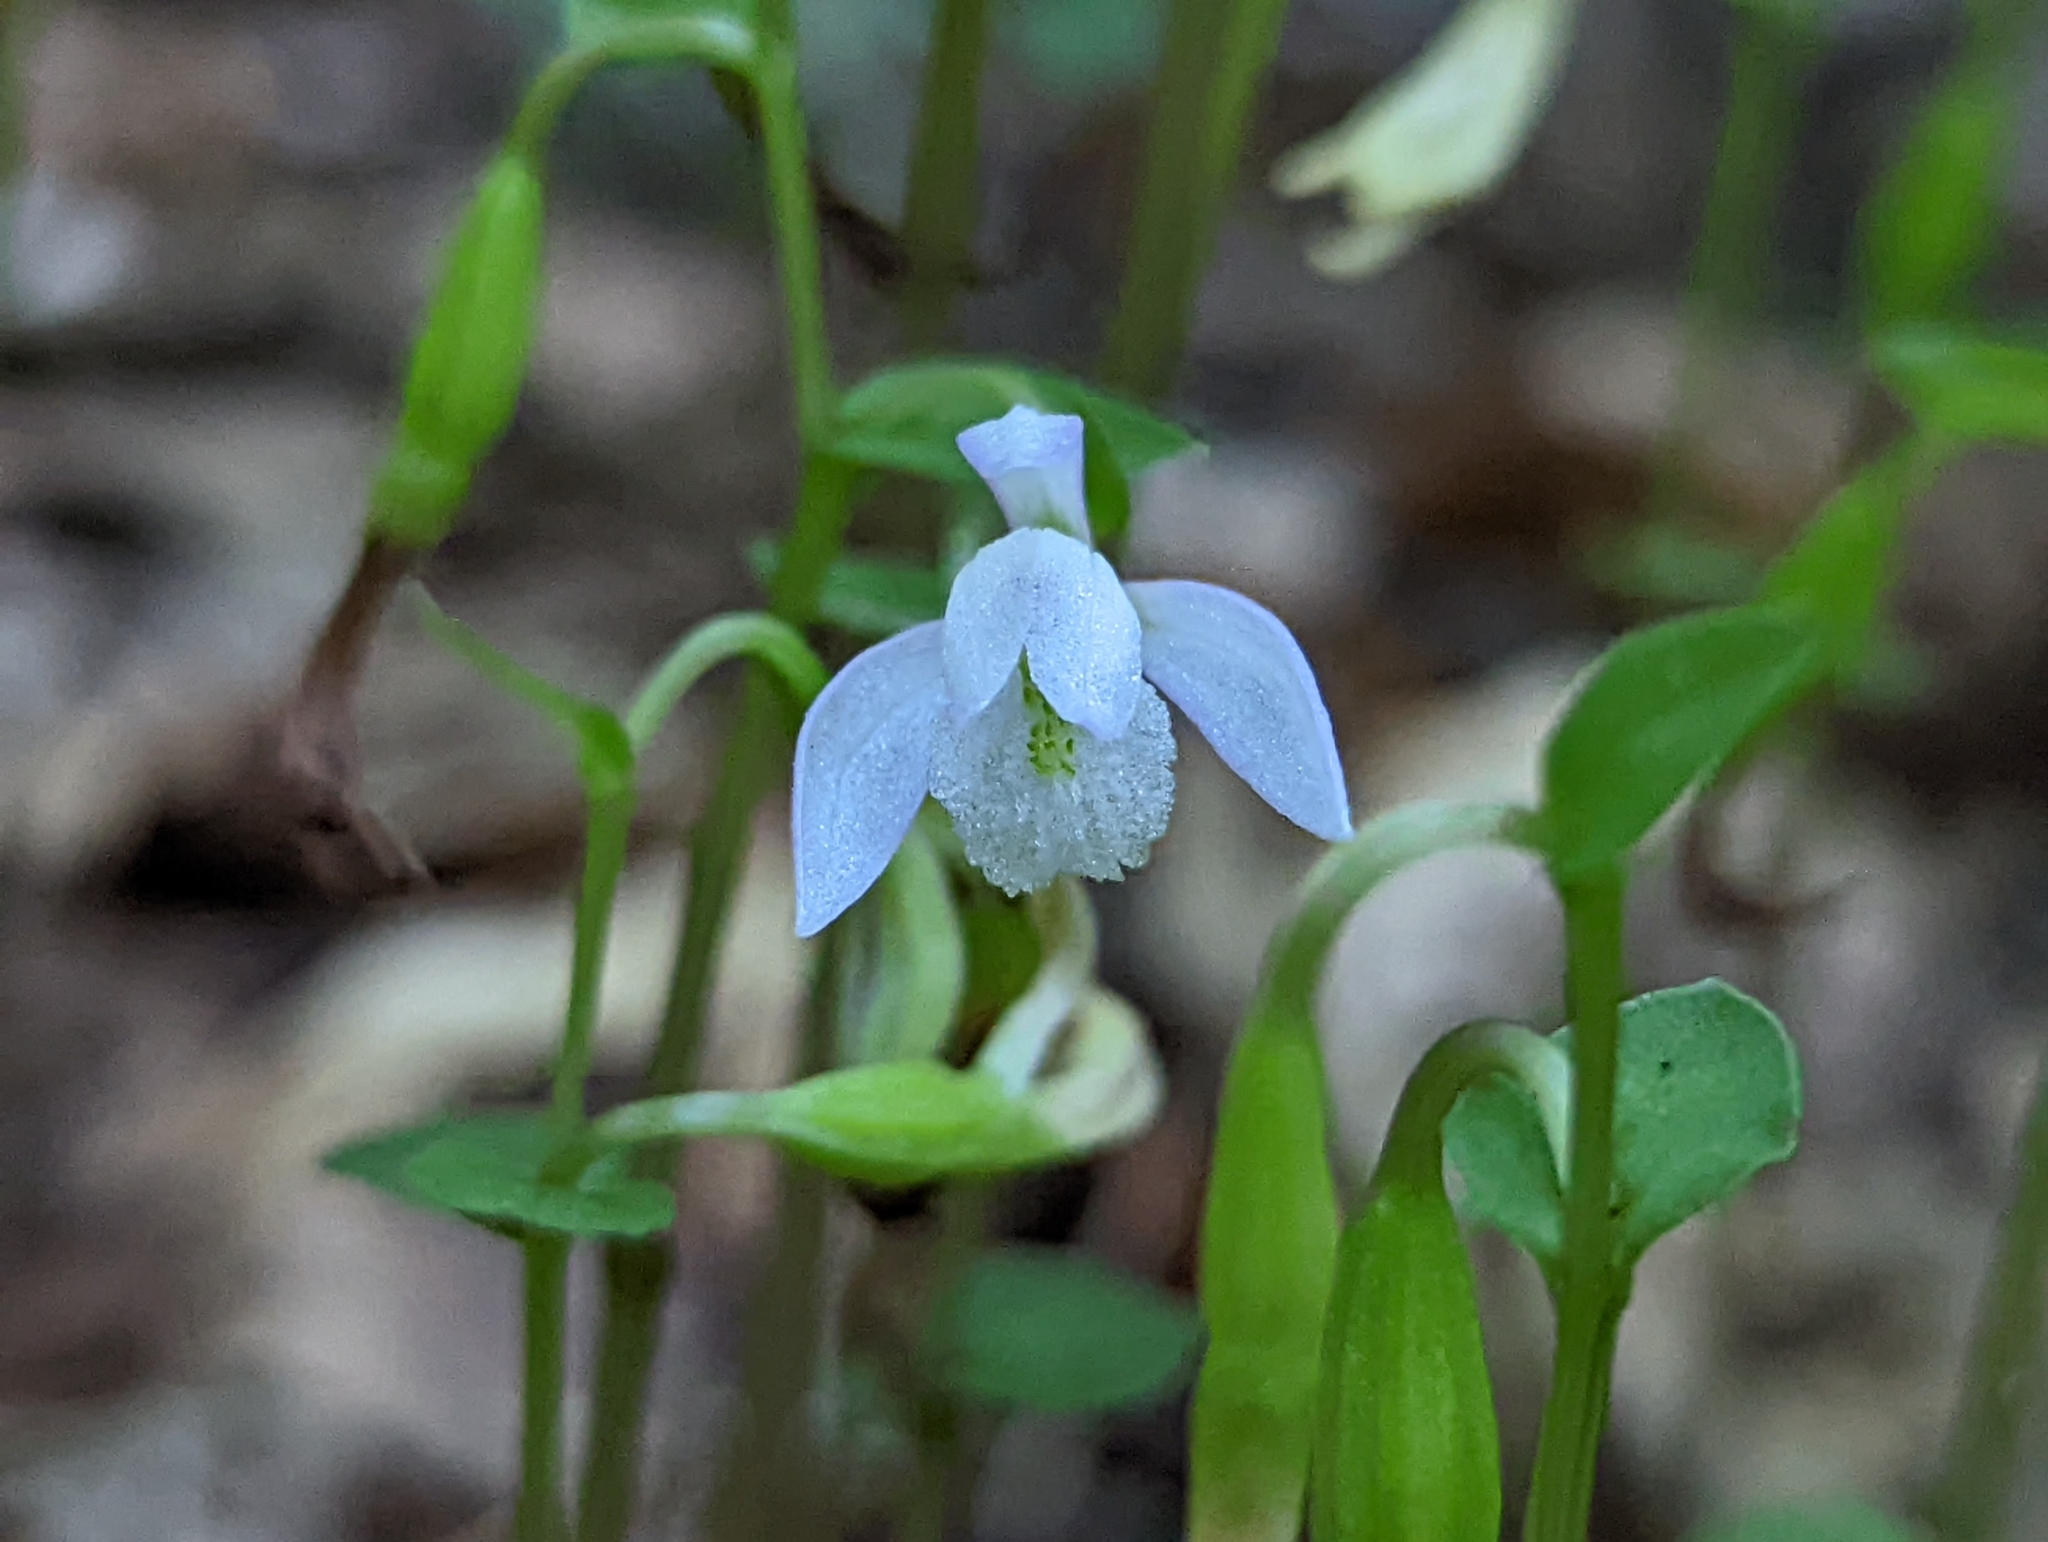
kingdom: Plantae
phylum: Tracheophyta
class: Liliopsida
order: Asparagales
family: Orchidaceae
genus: Triphora
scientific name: Triphora trianthophoros
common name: Three birds orchid
